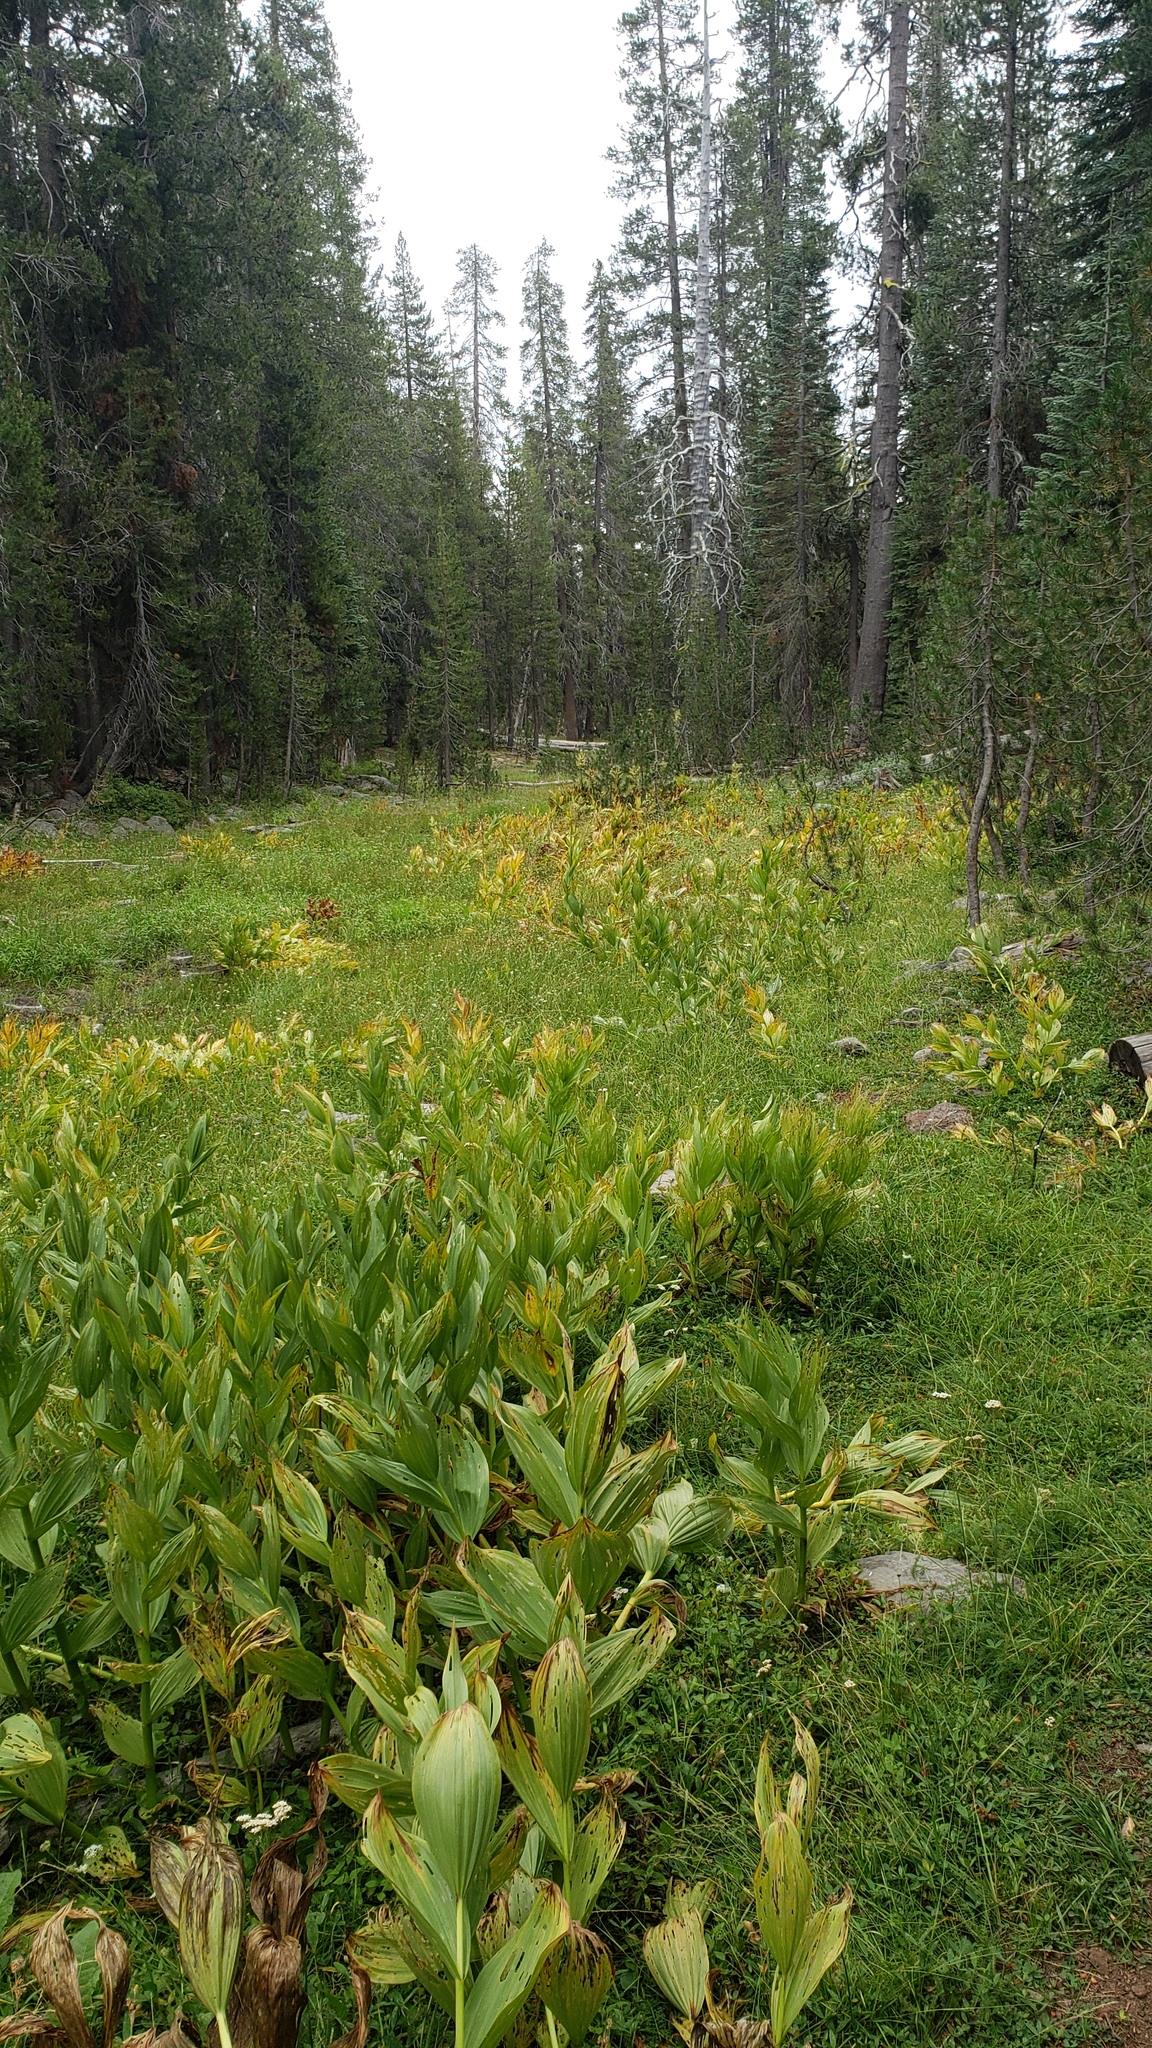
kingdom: Plantae
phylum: Tracheophyta
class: Liliopsida
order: Liliales
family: Melanthiaceae
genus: Veratrum
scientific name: Veratrum californicum
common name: California veratrum
